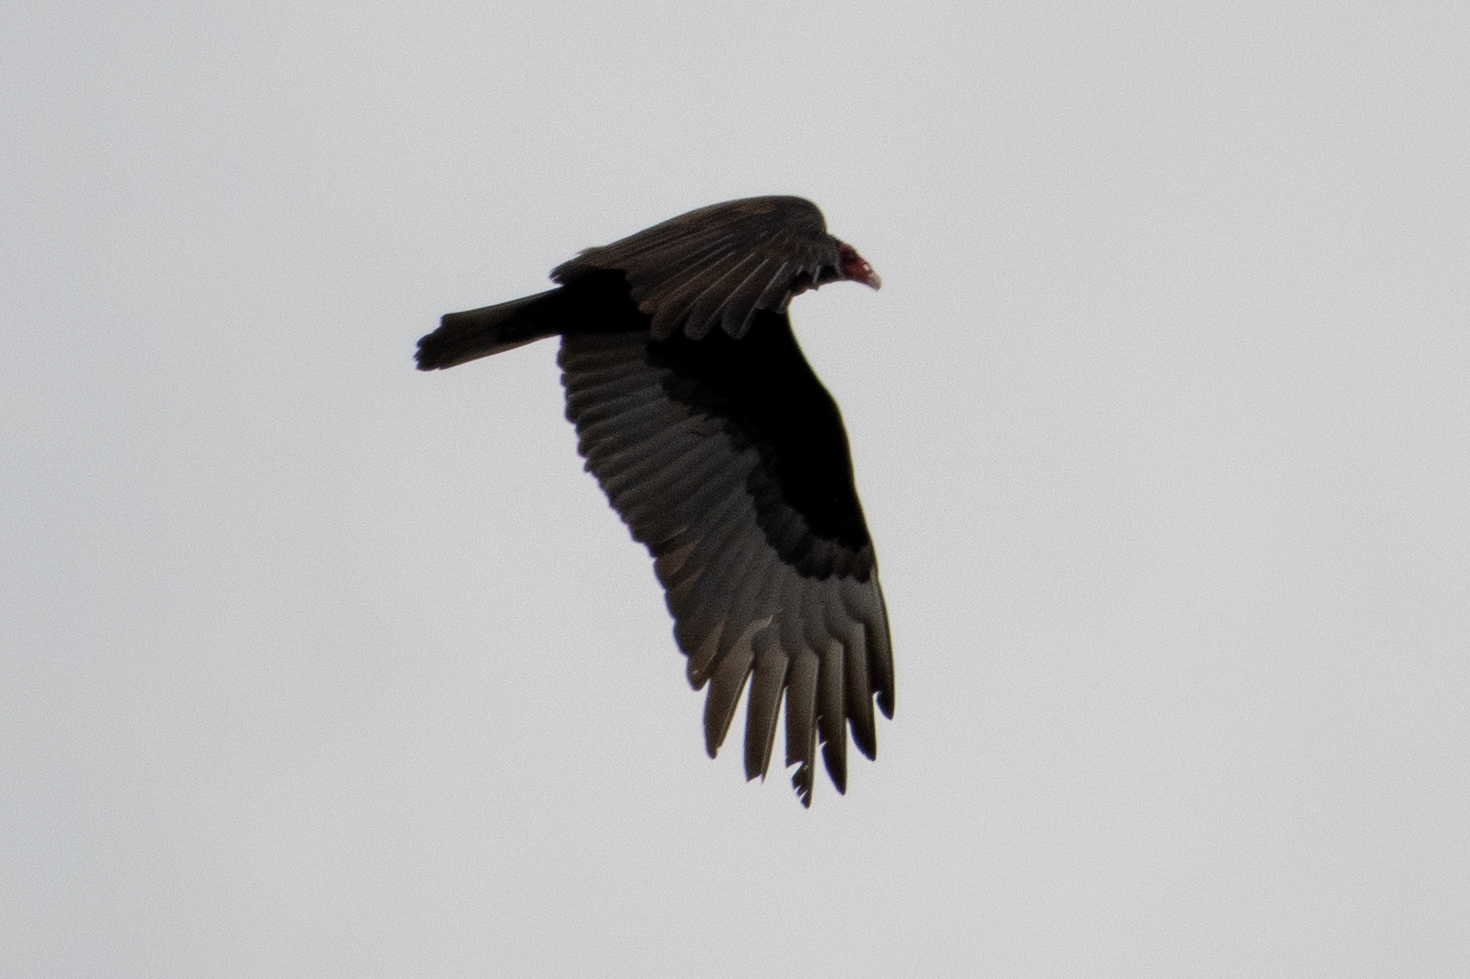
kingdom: Animalia
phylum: Chordata
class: Aves
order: Accipitriformes
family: Cathartidae
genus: Cathartes
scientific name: Cathartes aura
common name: Turkey vulture
